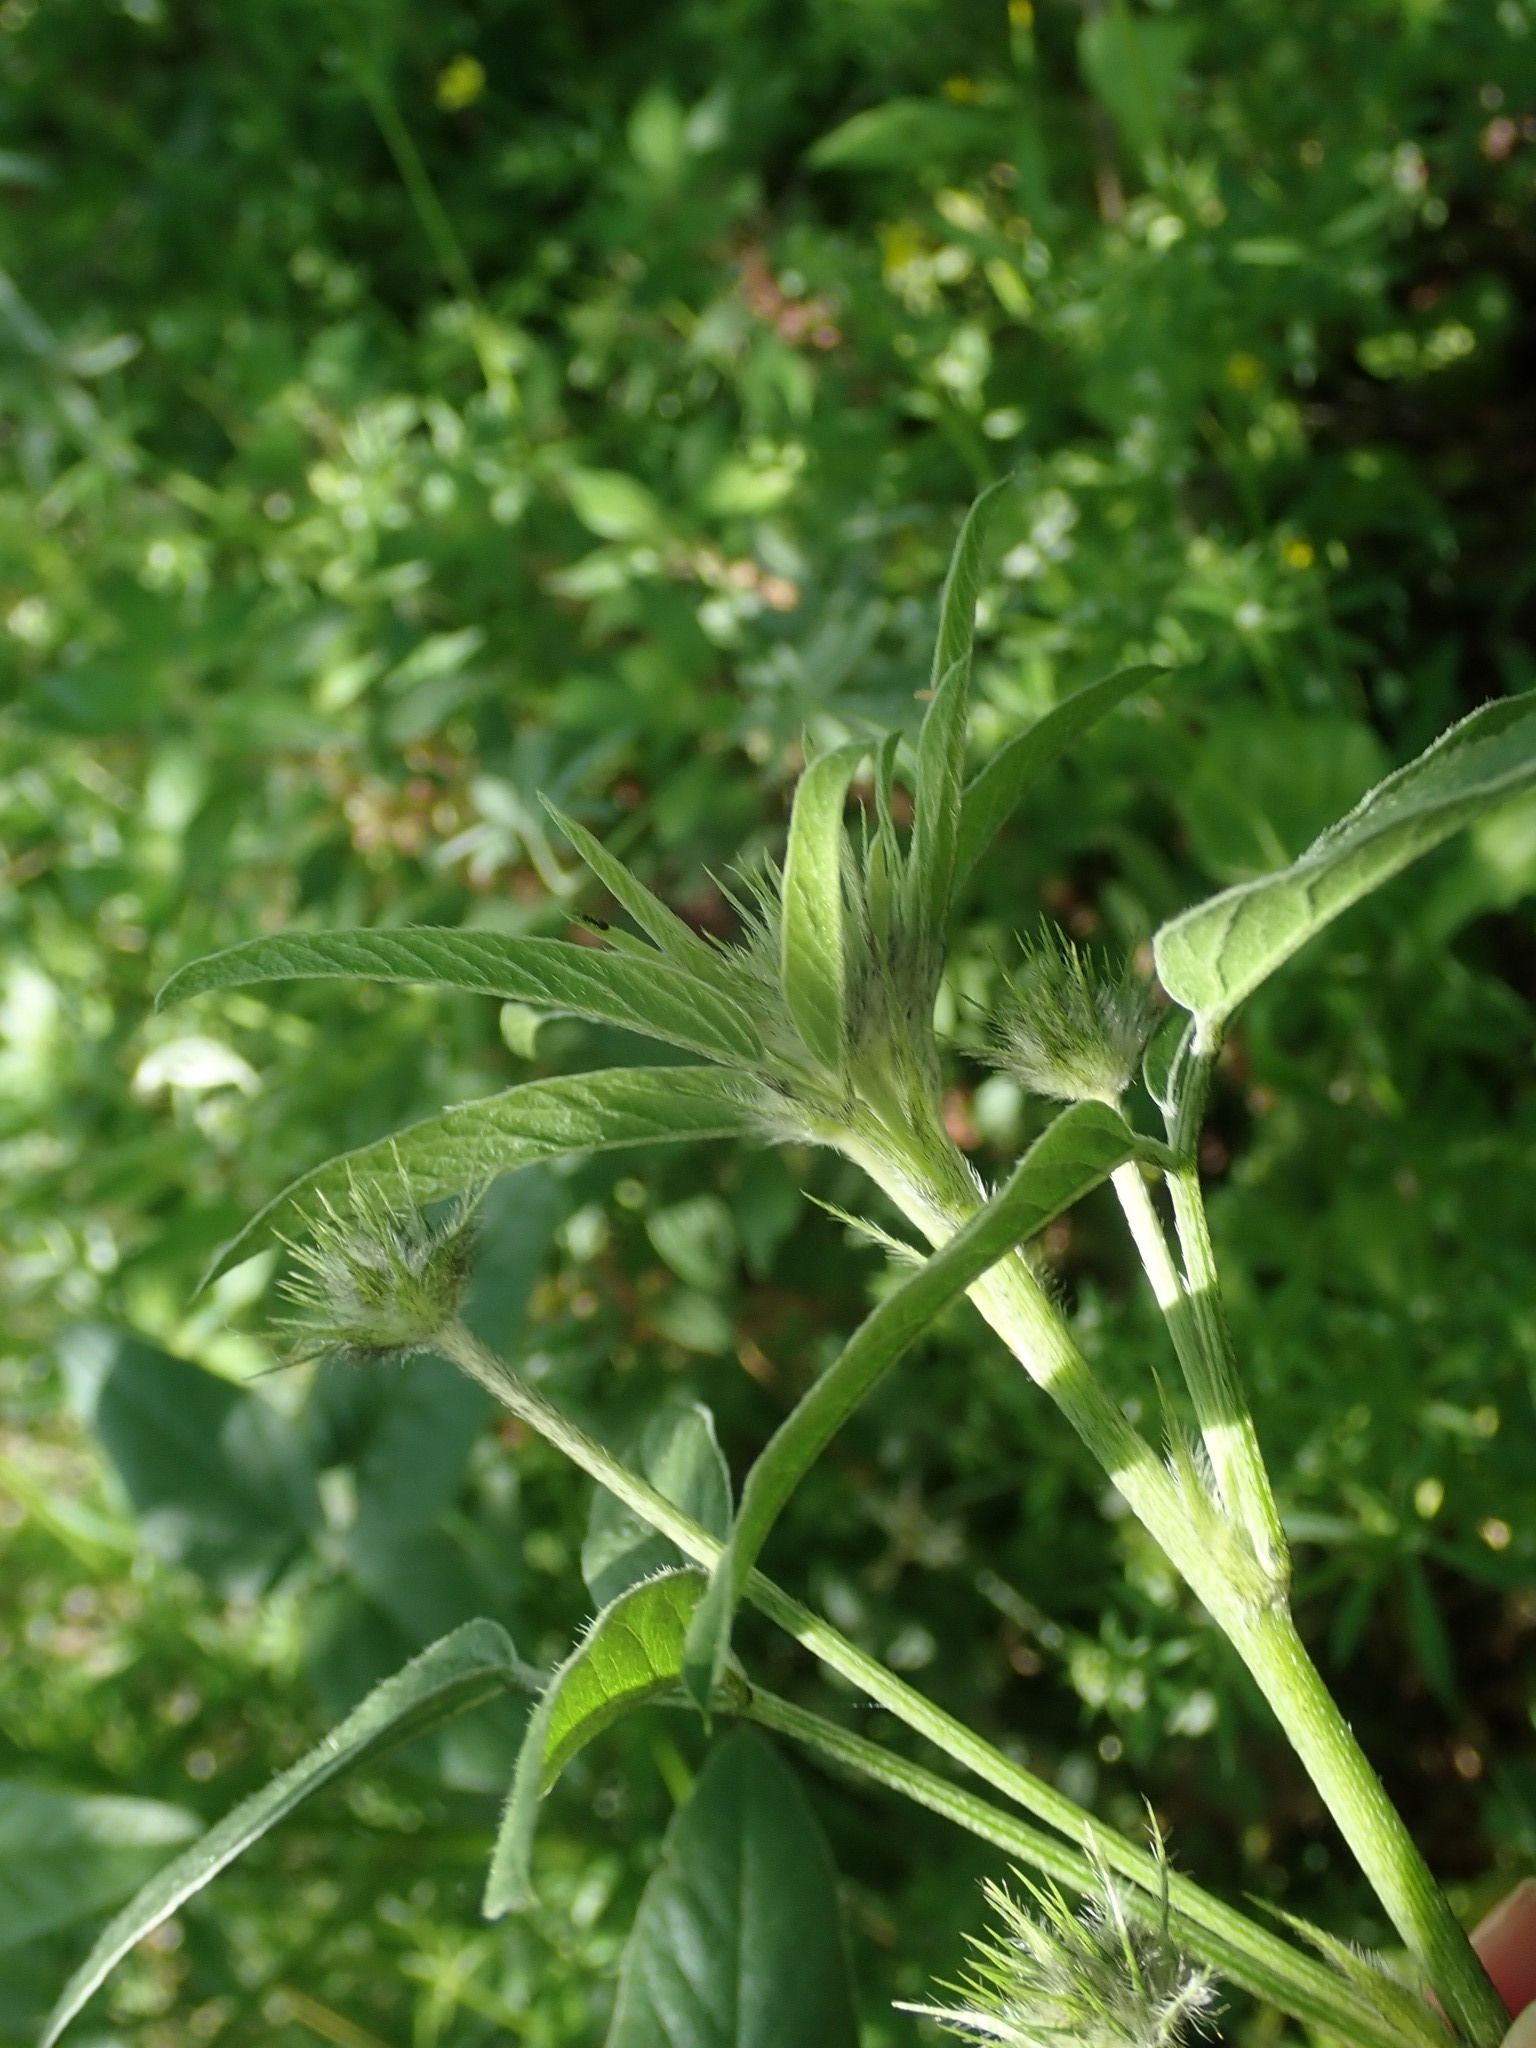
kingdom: Plantae
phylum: Tracheophyta
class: Magnoliopsida
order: Fabales
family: Fabaceae
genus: Bituminaria
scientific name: Bituminaria plumosa
